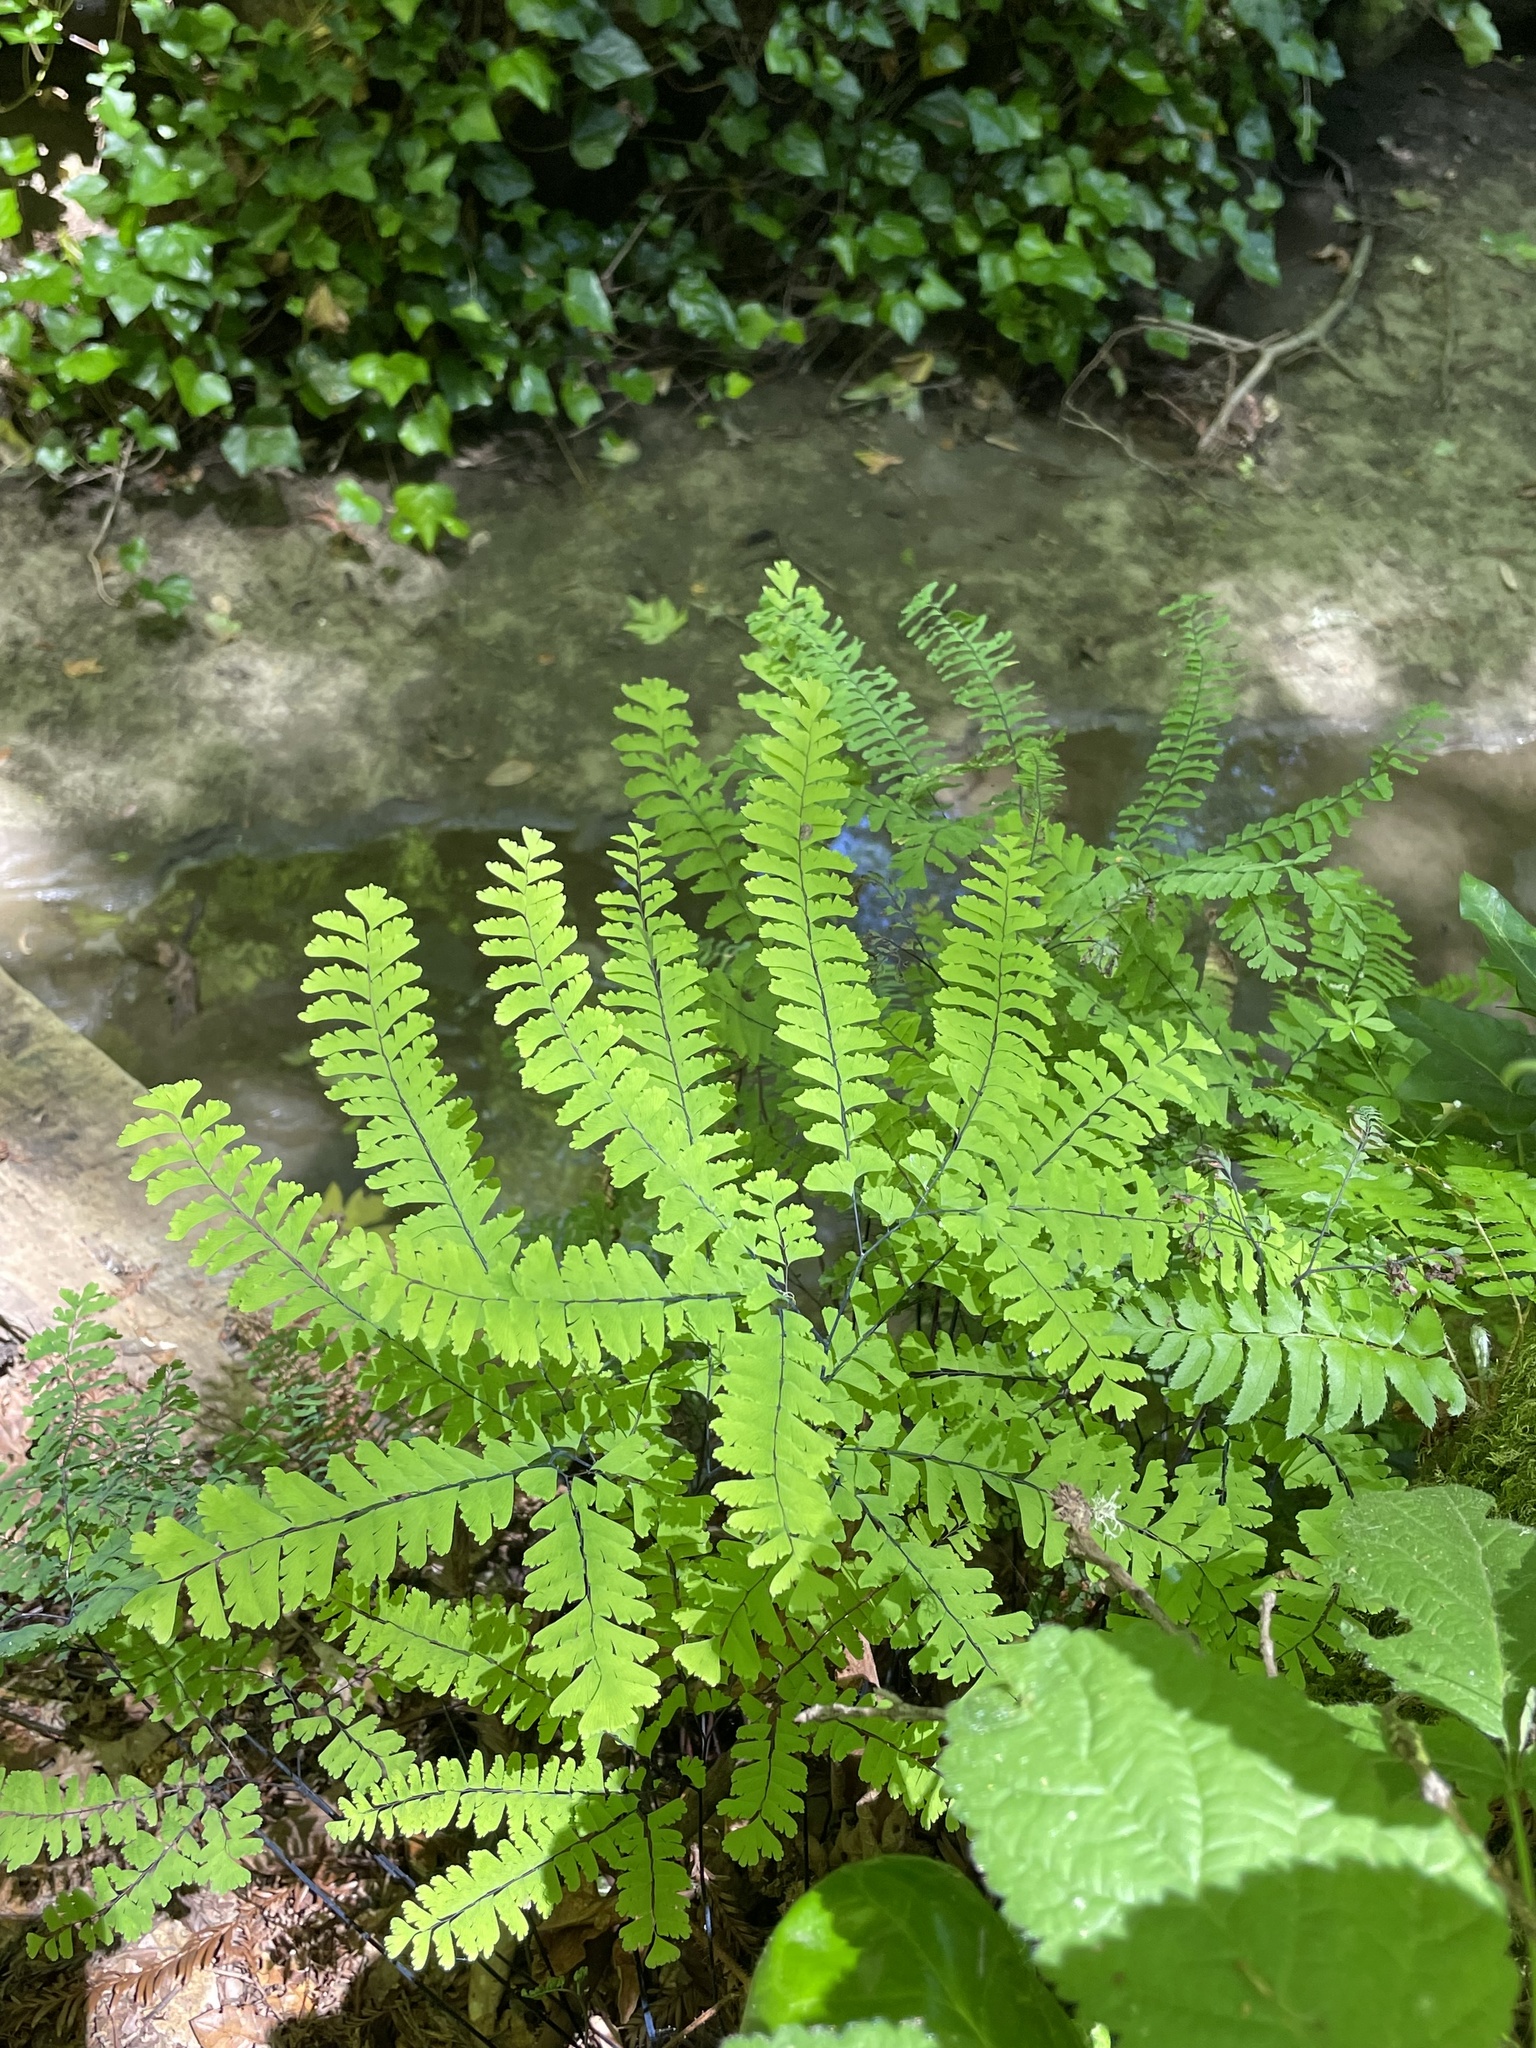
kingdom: Plantae
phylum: Tracheophyta
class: Polypodiopsida
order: Polypodiales
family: Pteridaceae
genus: Adiantum
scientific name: Adiantum aleuticum
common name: Aleutian maidenhair fern
